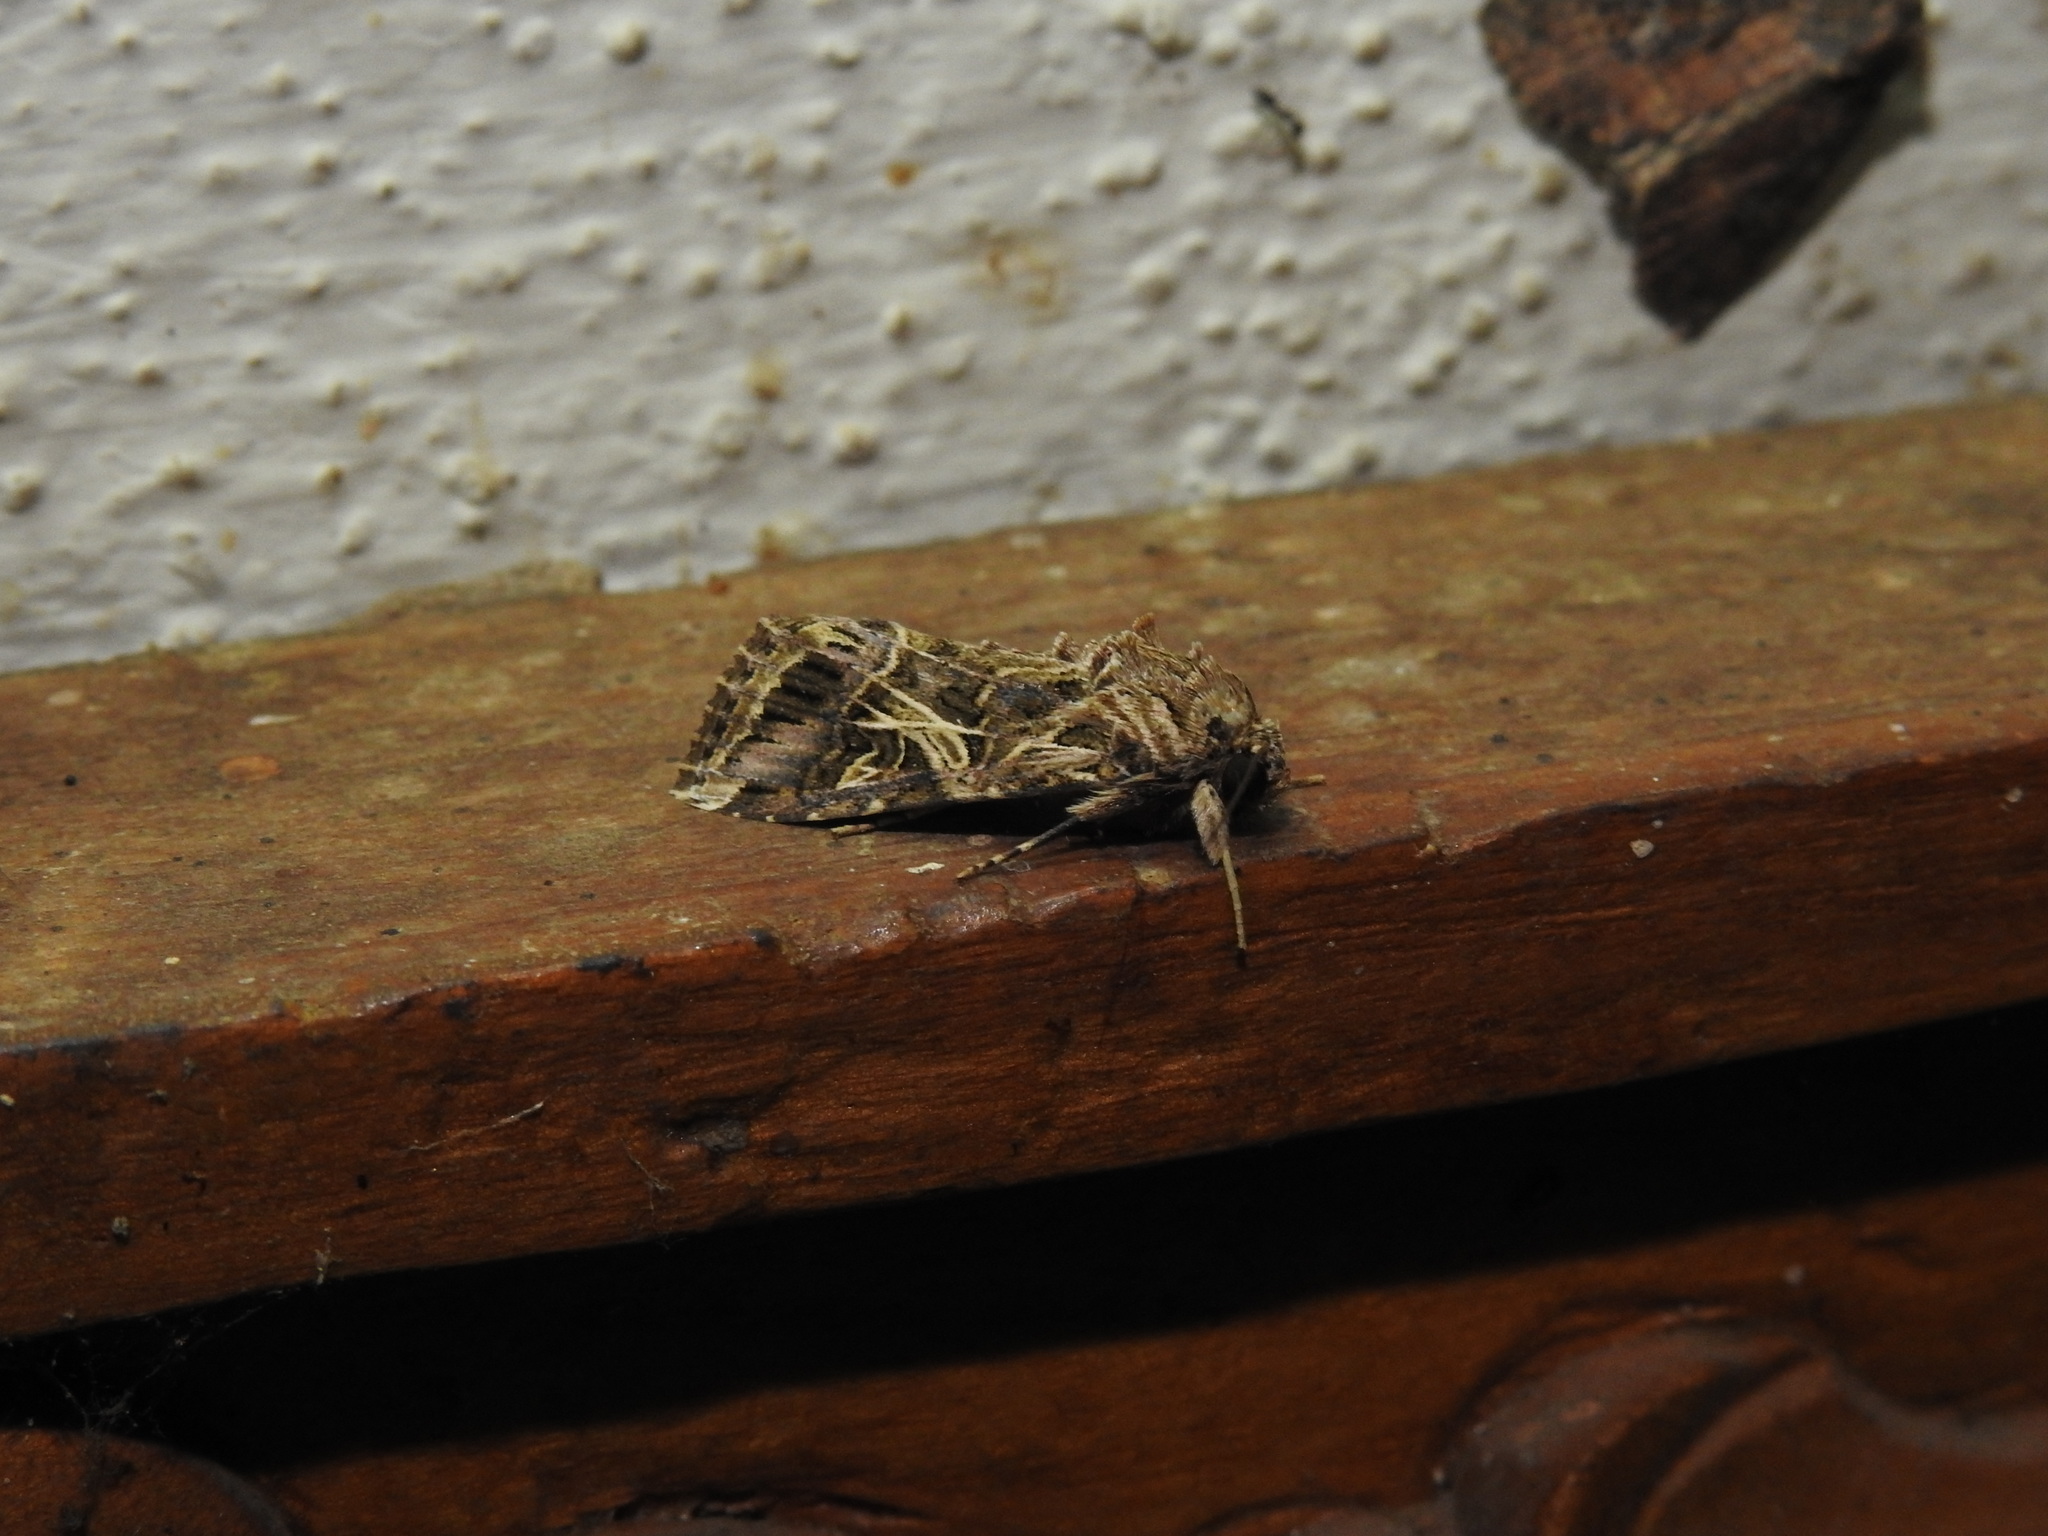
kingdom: Animalia
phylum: Arthropoda
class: Insecta
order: Lepidoptera
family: Noctuidae
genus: Spodoptera
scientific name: Spodoptera litura
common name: Asian cotton leafworm
